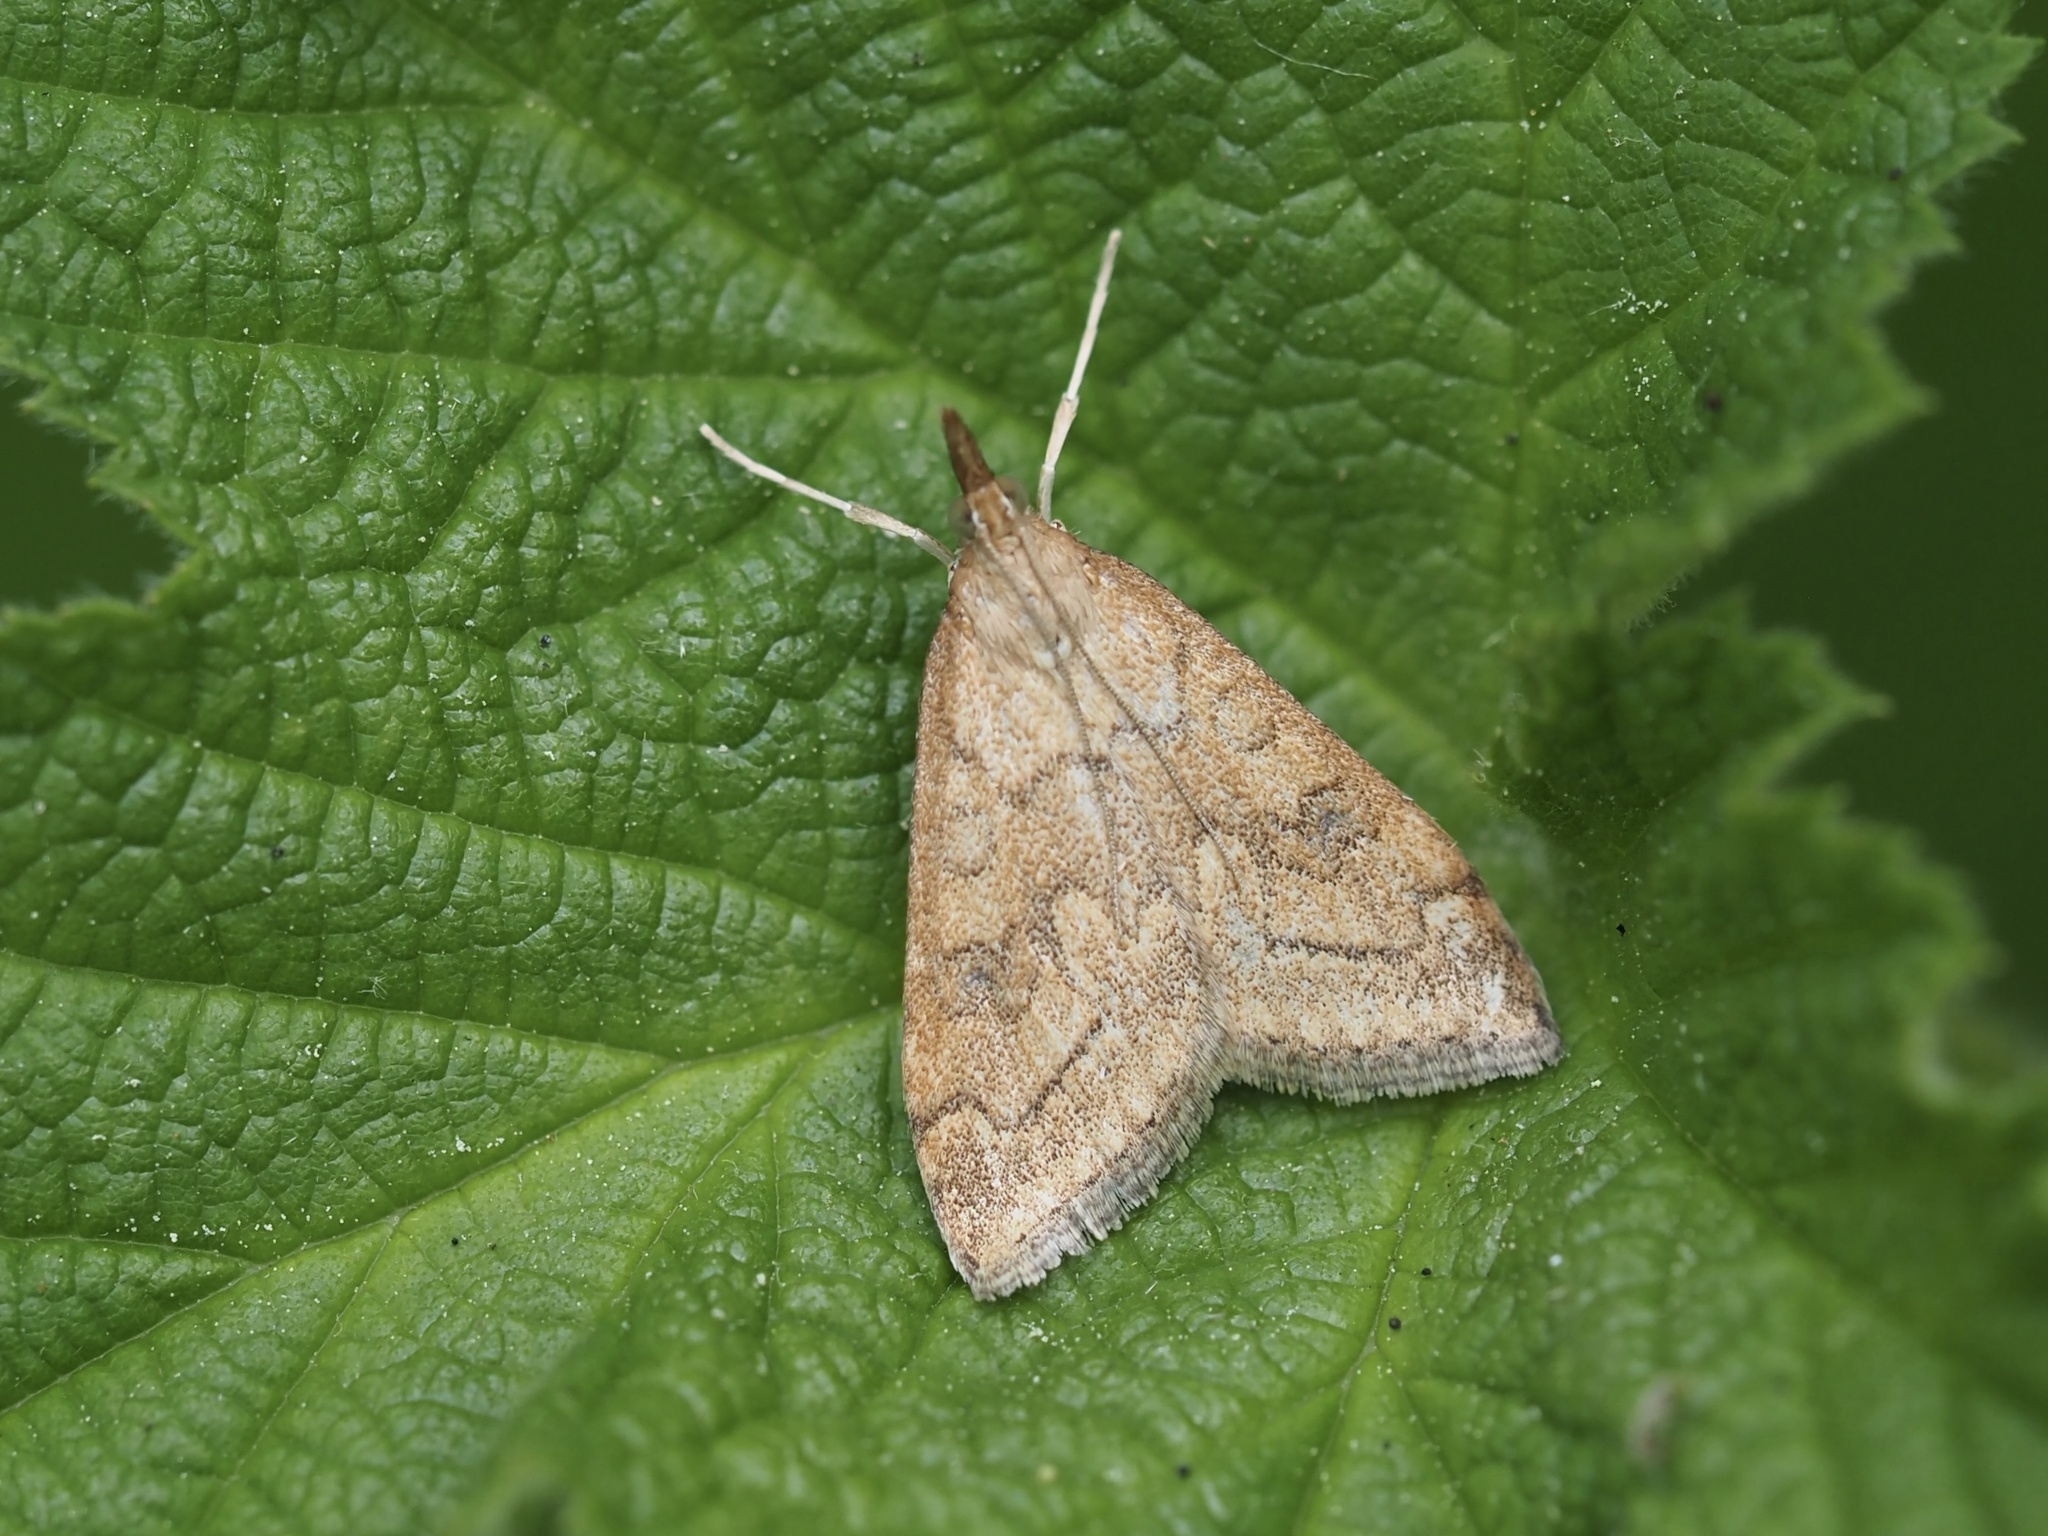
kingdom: Animalia
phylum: Arthropoda
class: Insecta
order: Lepidoptera
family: Crambidae
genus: Udea
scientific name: Udea profundalis
